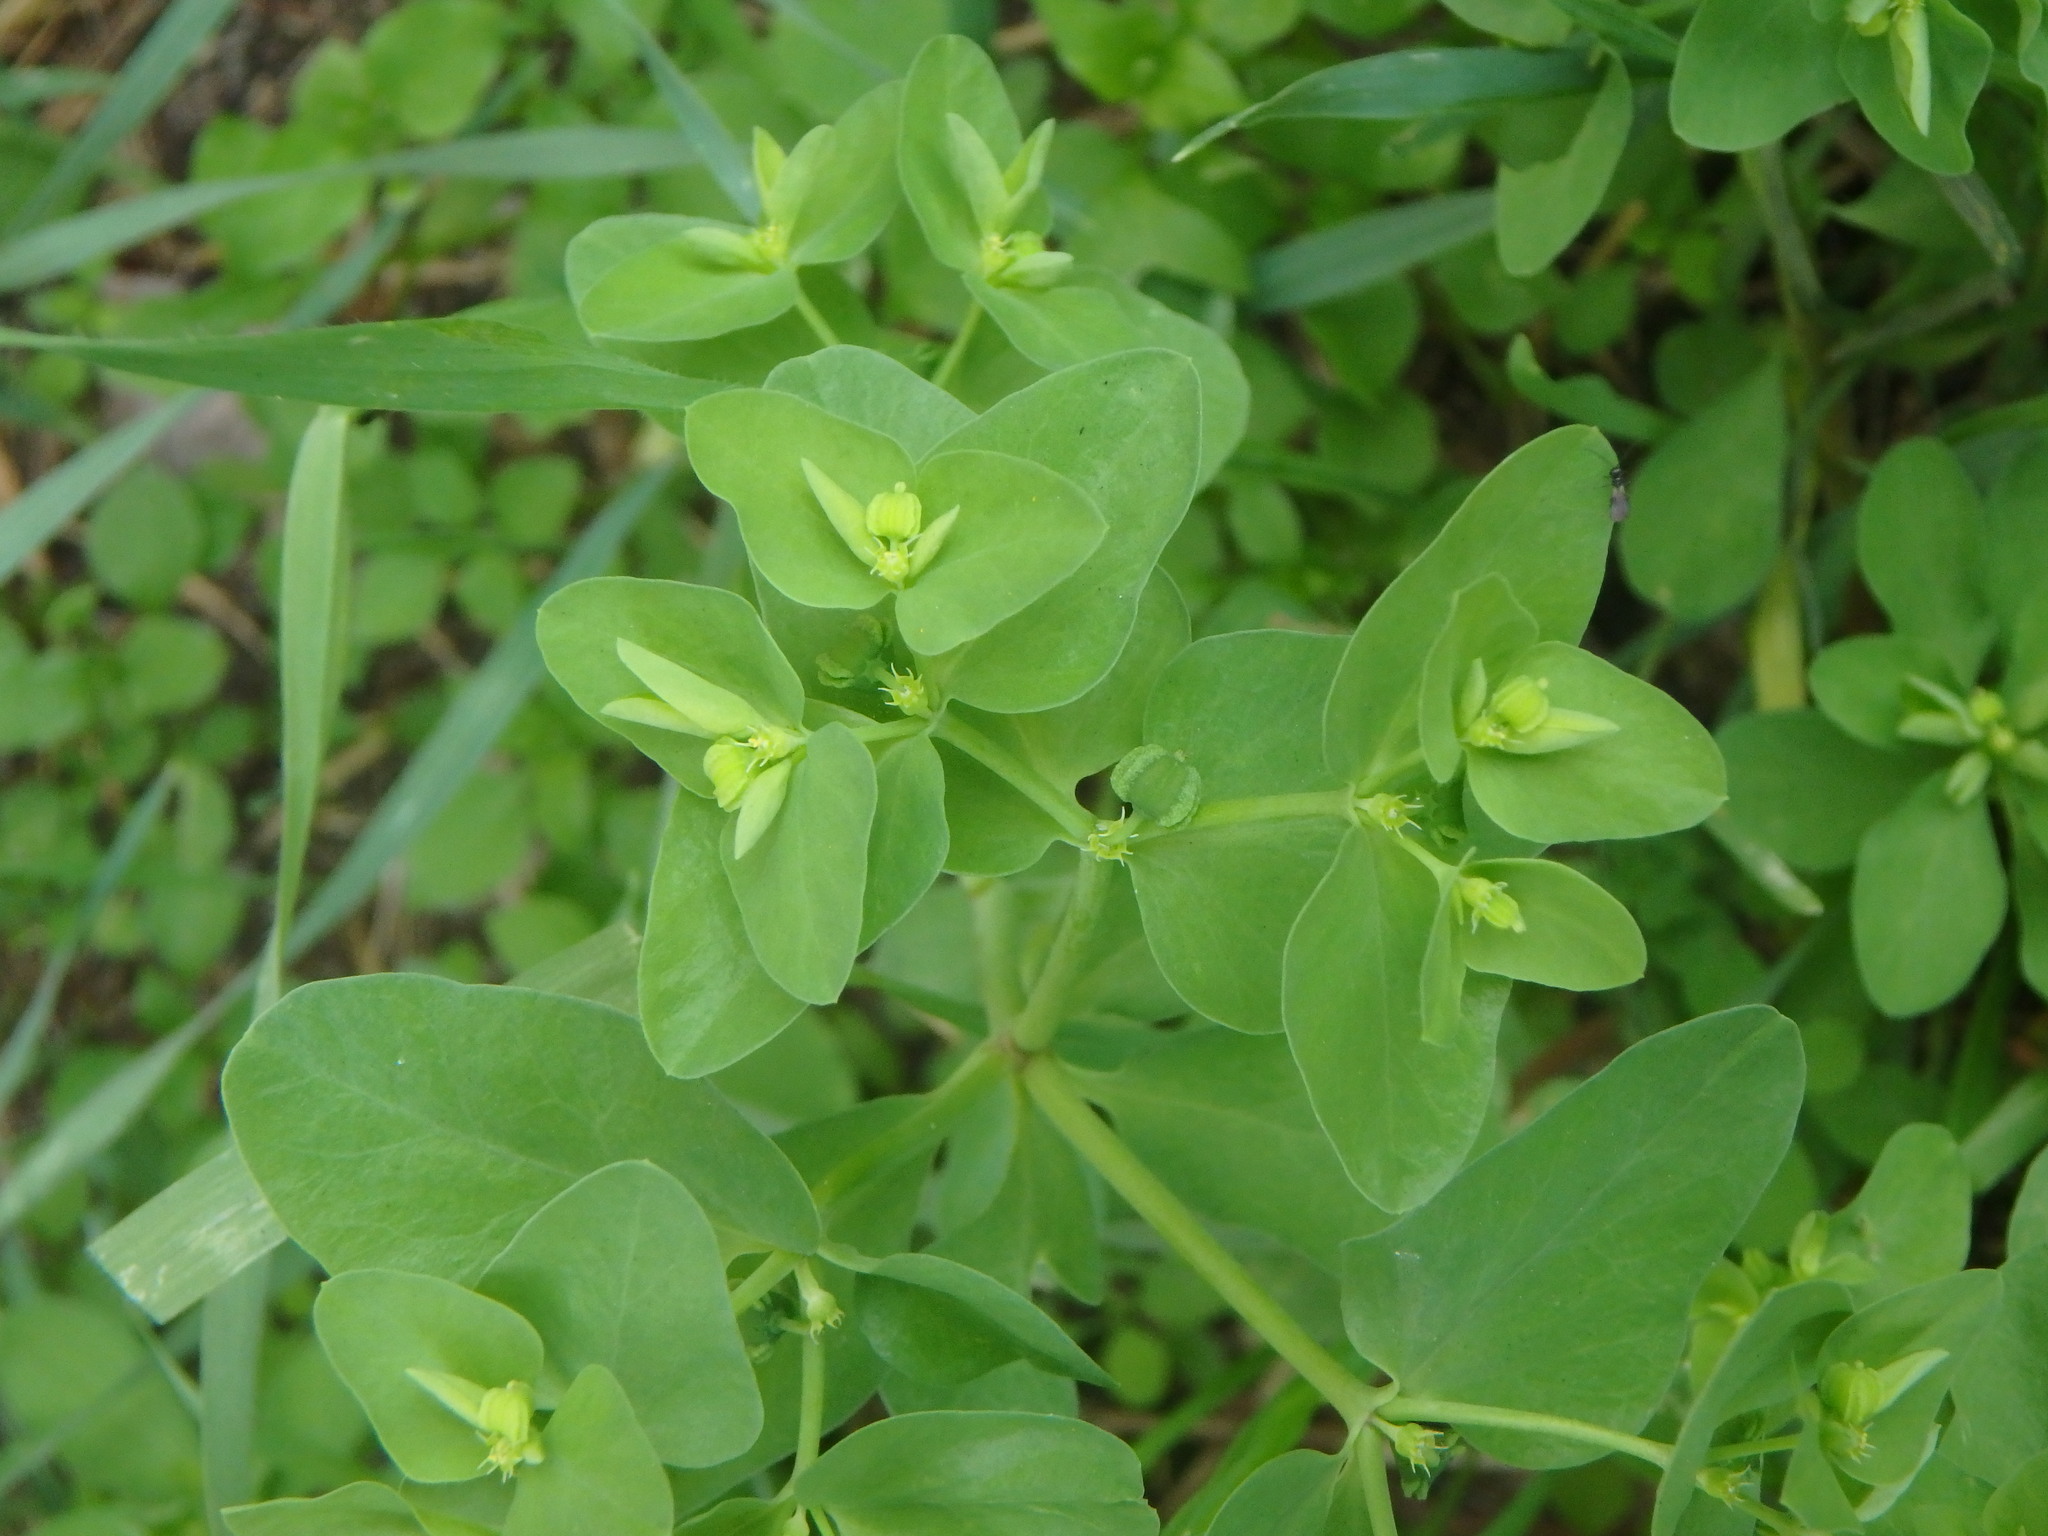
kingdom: Plantae
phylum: Tracheophyta
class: Magnoliopsida
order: Malpighiales
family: Euphorbiaceae
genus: Euphorbia
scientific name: Euphorbia peplus
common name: Petty spurge
